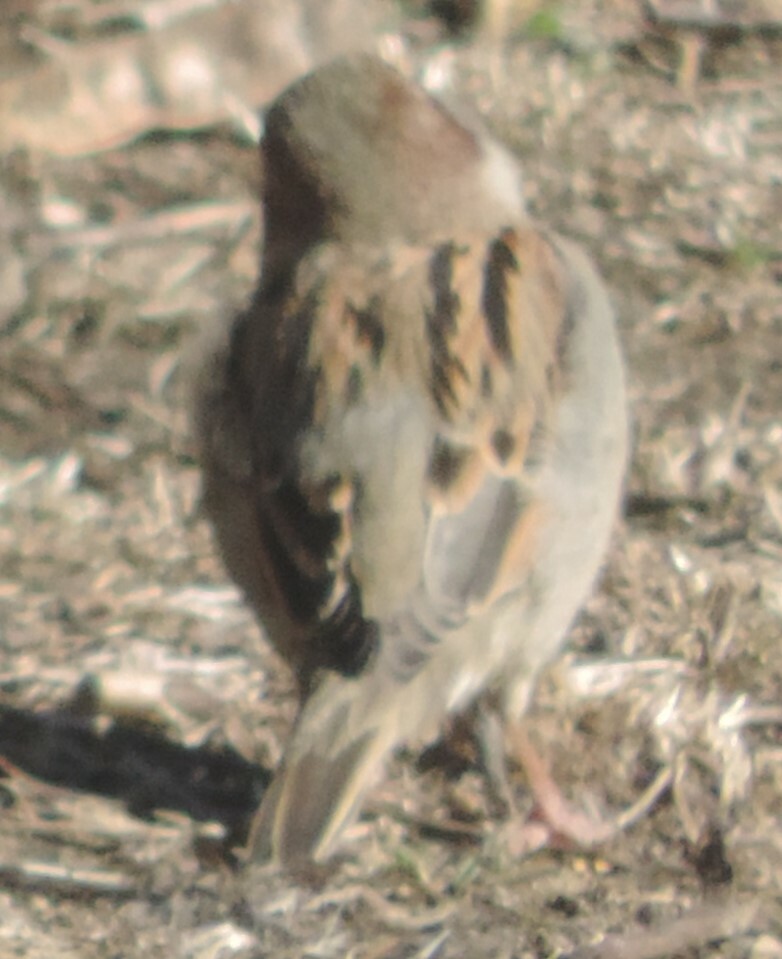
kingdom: Animalia
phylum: Chordata
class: Aves
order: Passeriformes
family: Passeridae
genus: Passer
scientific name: Passer domesticus
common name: House sparrow
